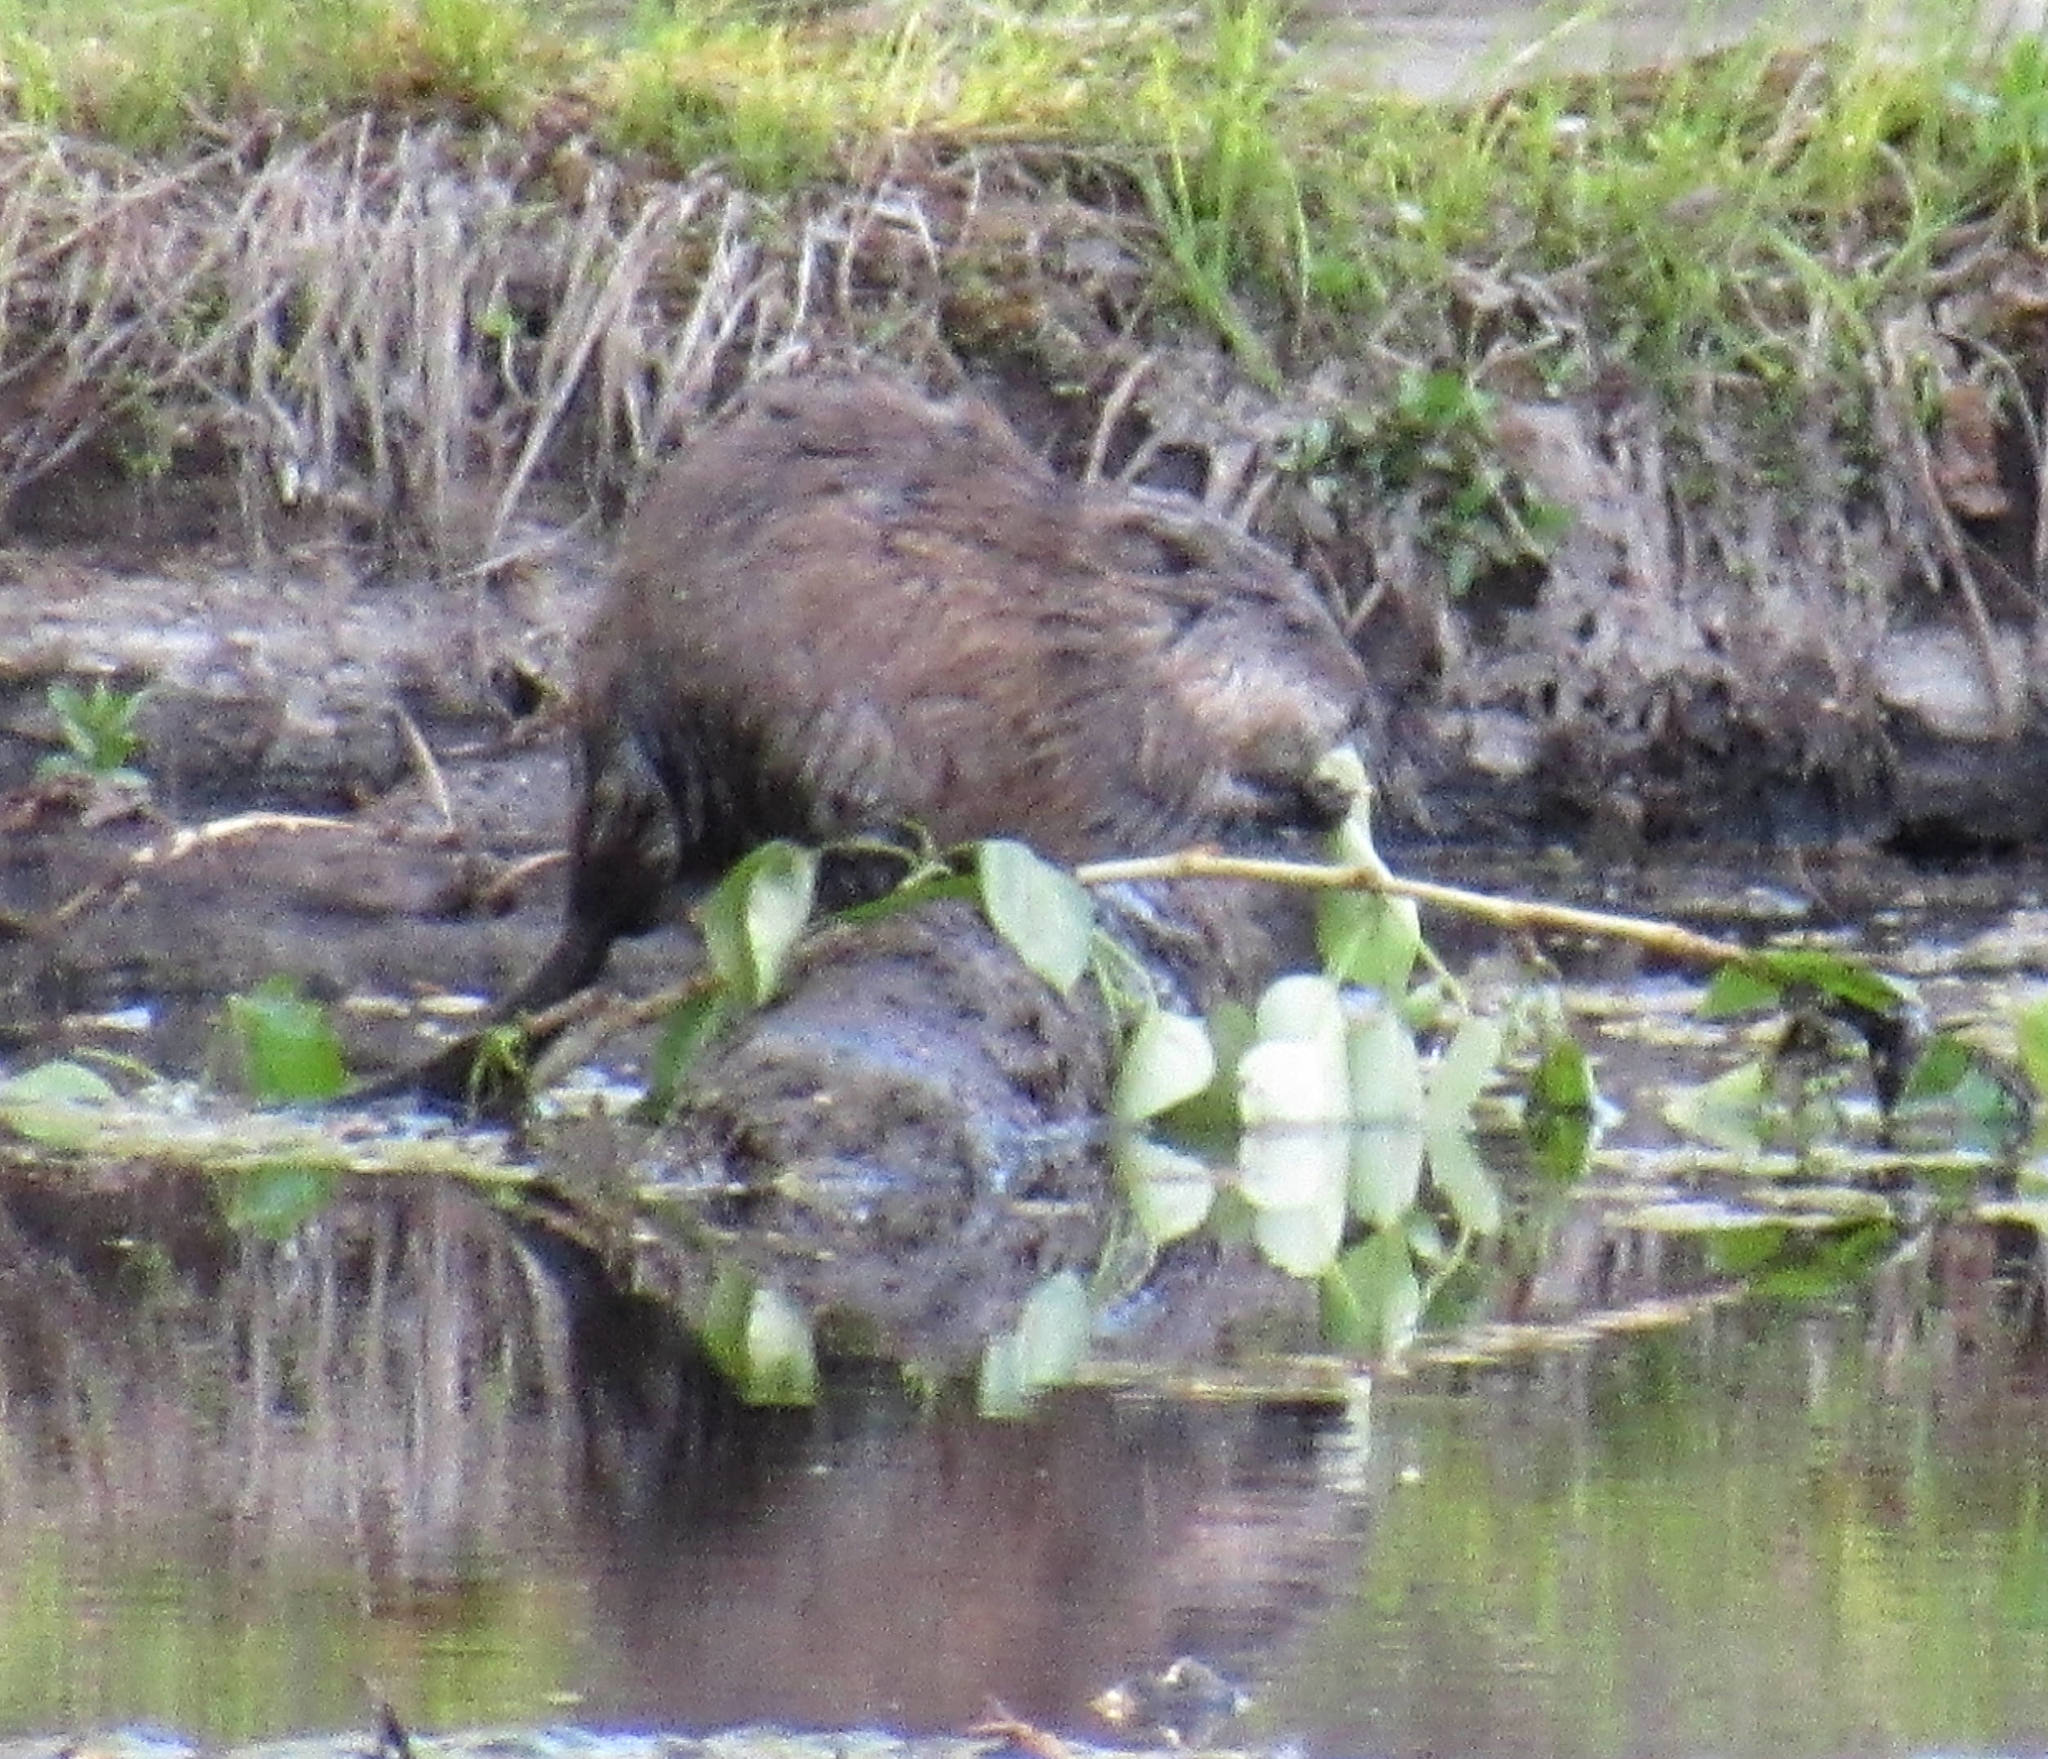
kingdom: Animalia
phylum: Chordata
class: Mammalia
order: Rodentia
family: Cricetidae
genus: Ondatra
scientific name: Ondatra zibethicus
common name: Muskrat
